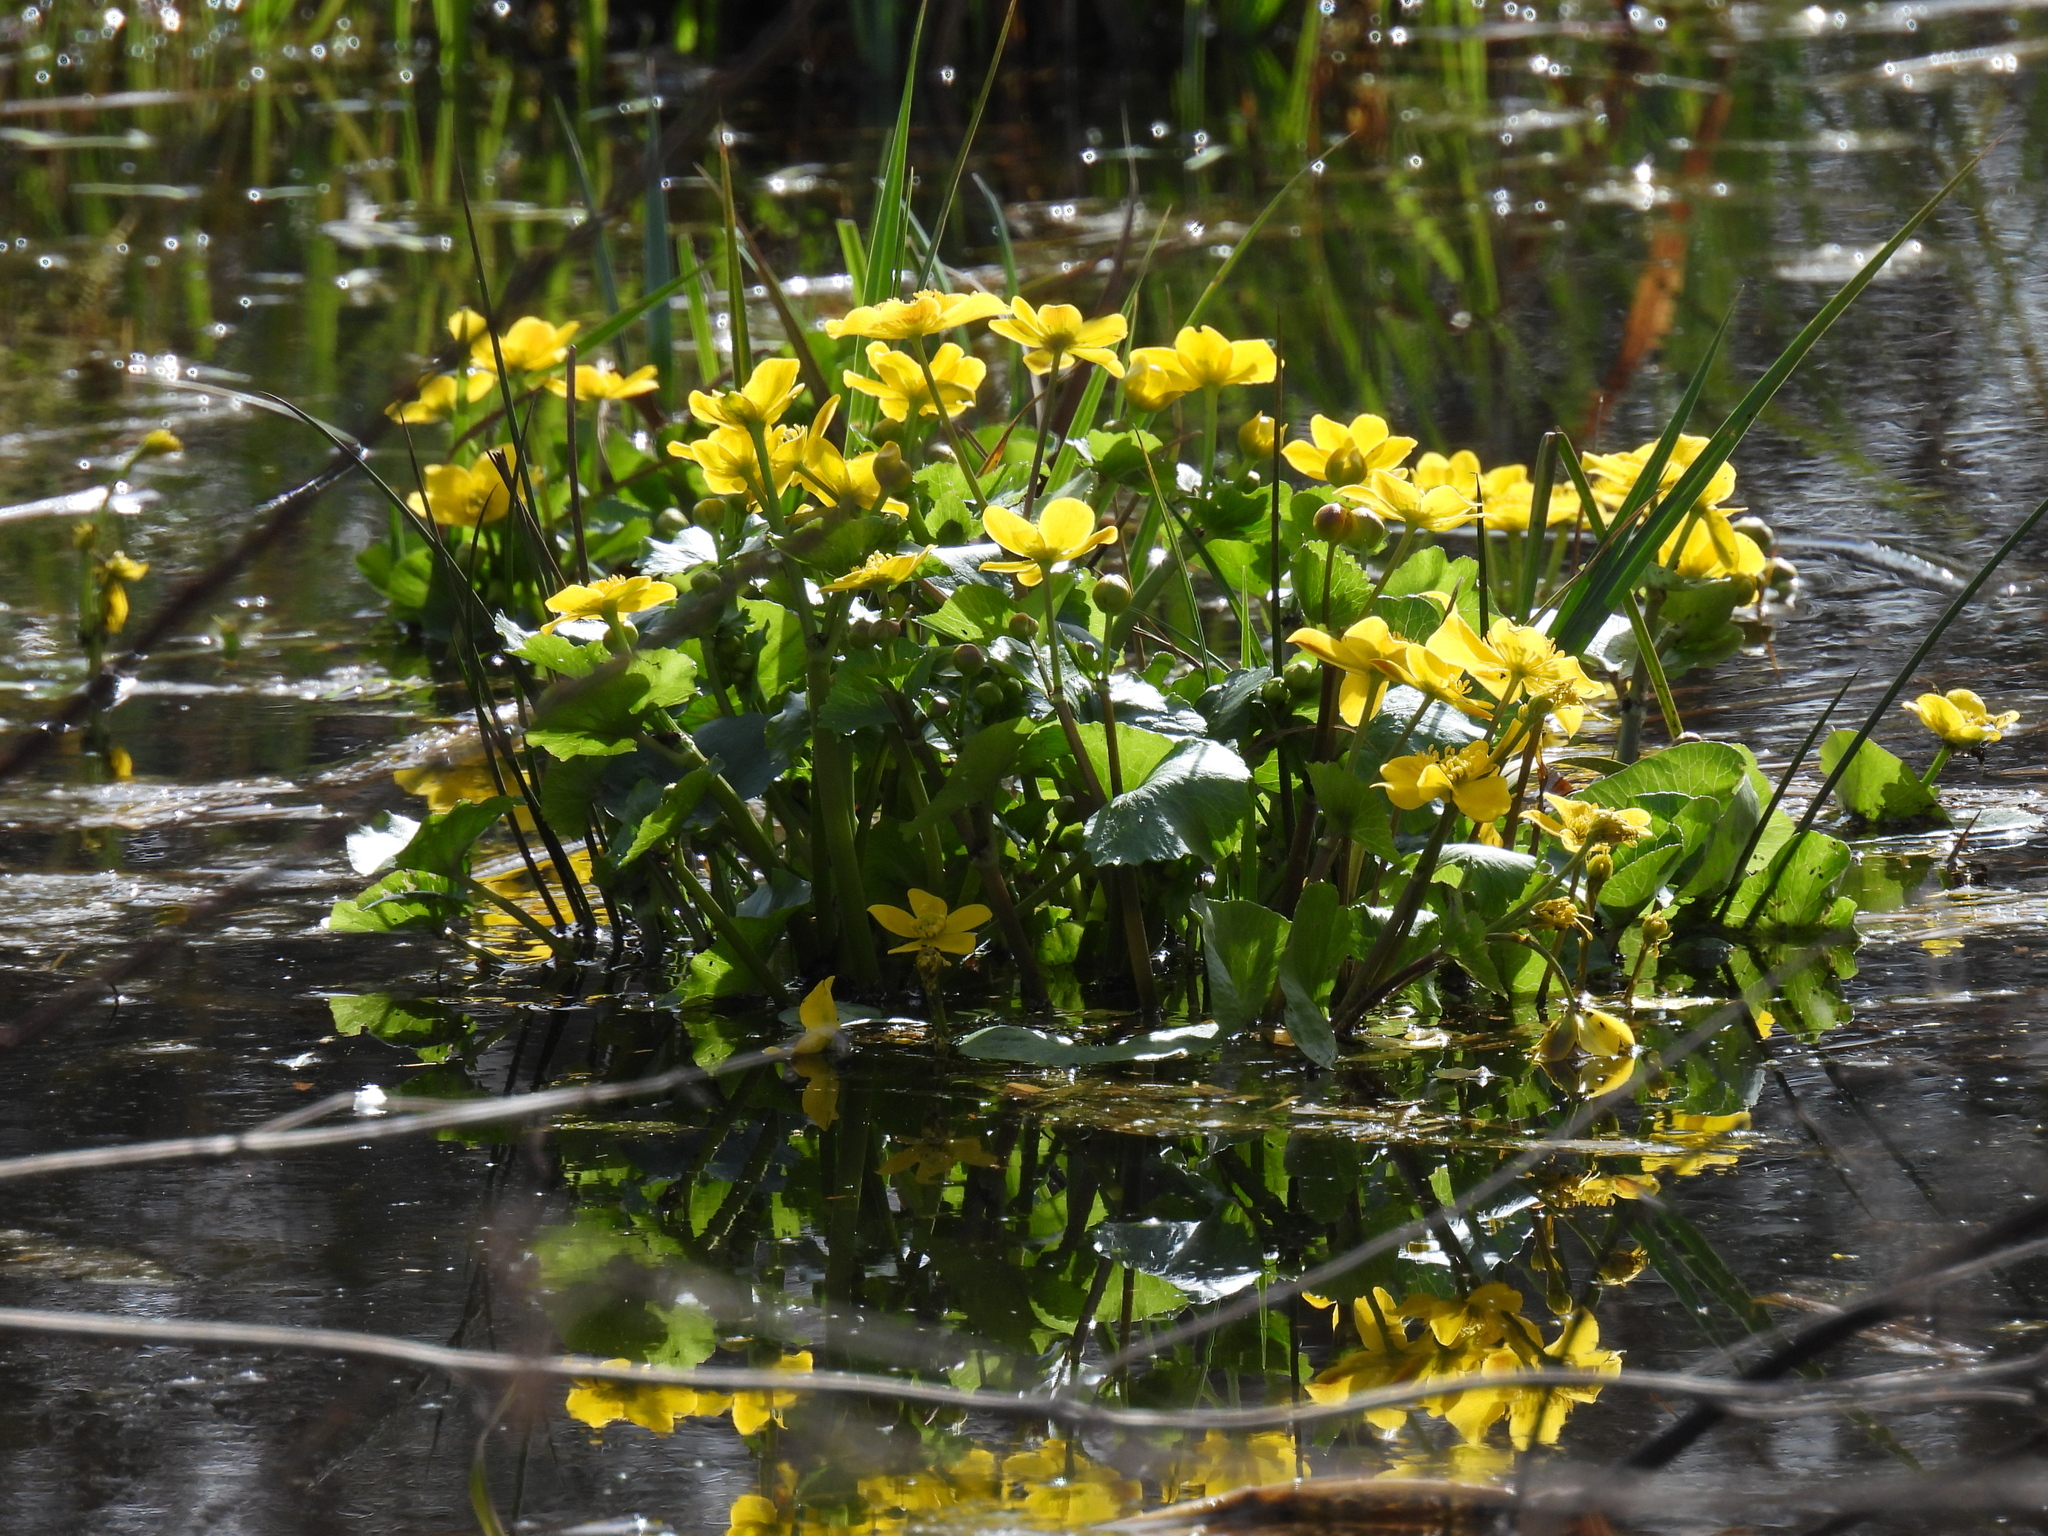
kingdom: Plantae
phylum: Tracheophyta
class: Magnoliopsida
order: Ranunculales
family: Ranunculaceae
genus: Caltha
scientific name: Caltha palustris
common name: Marsh marigold
